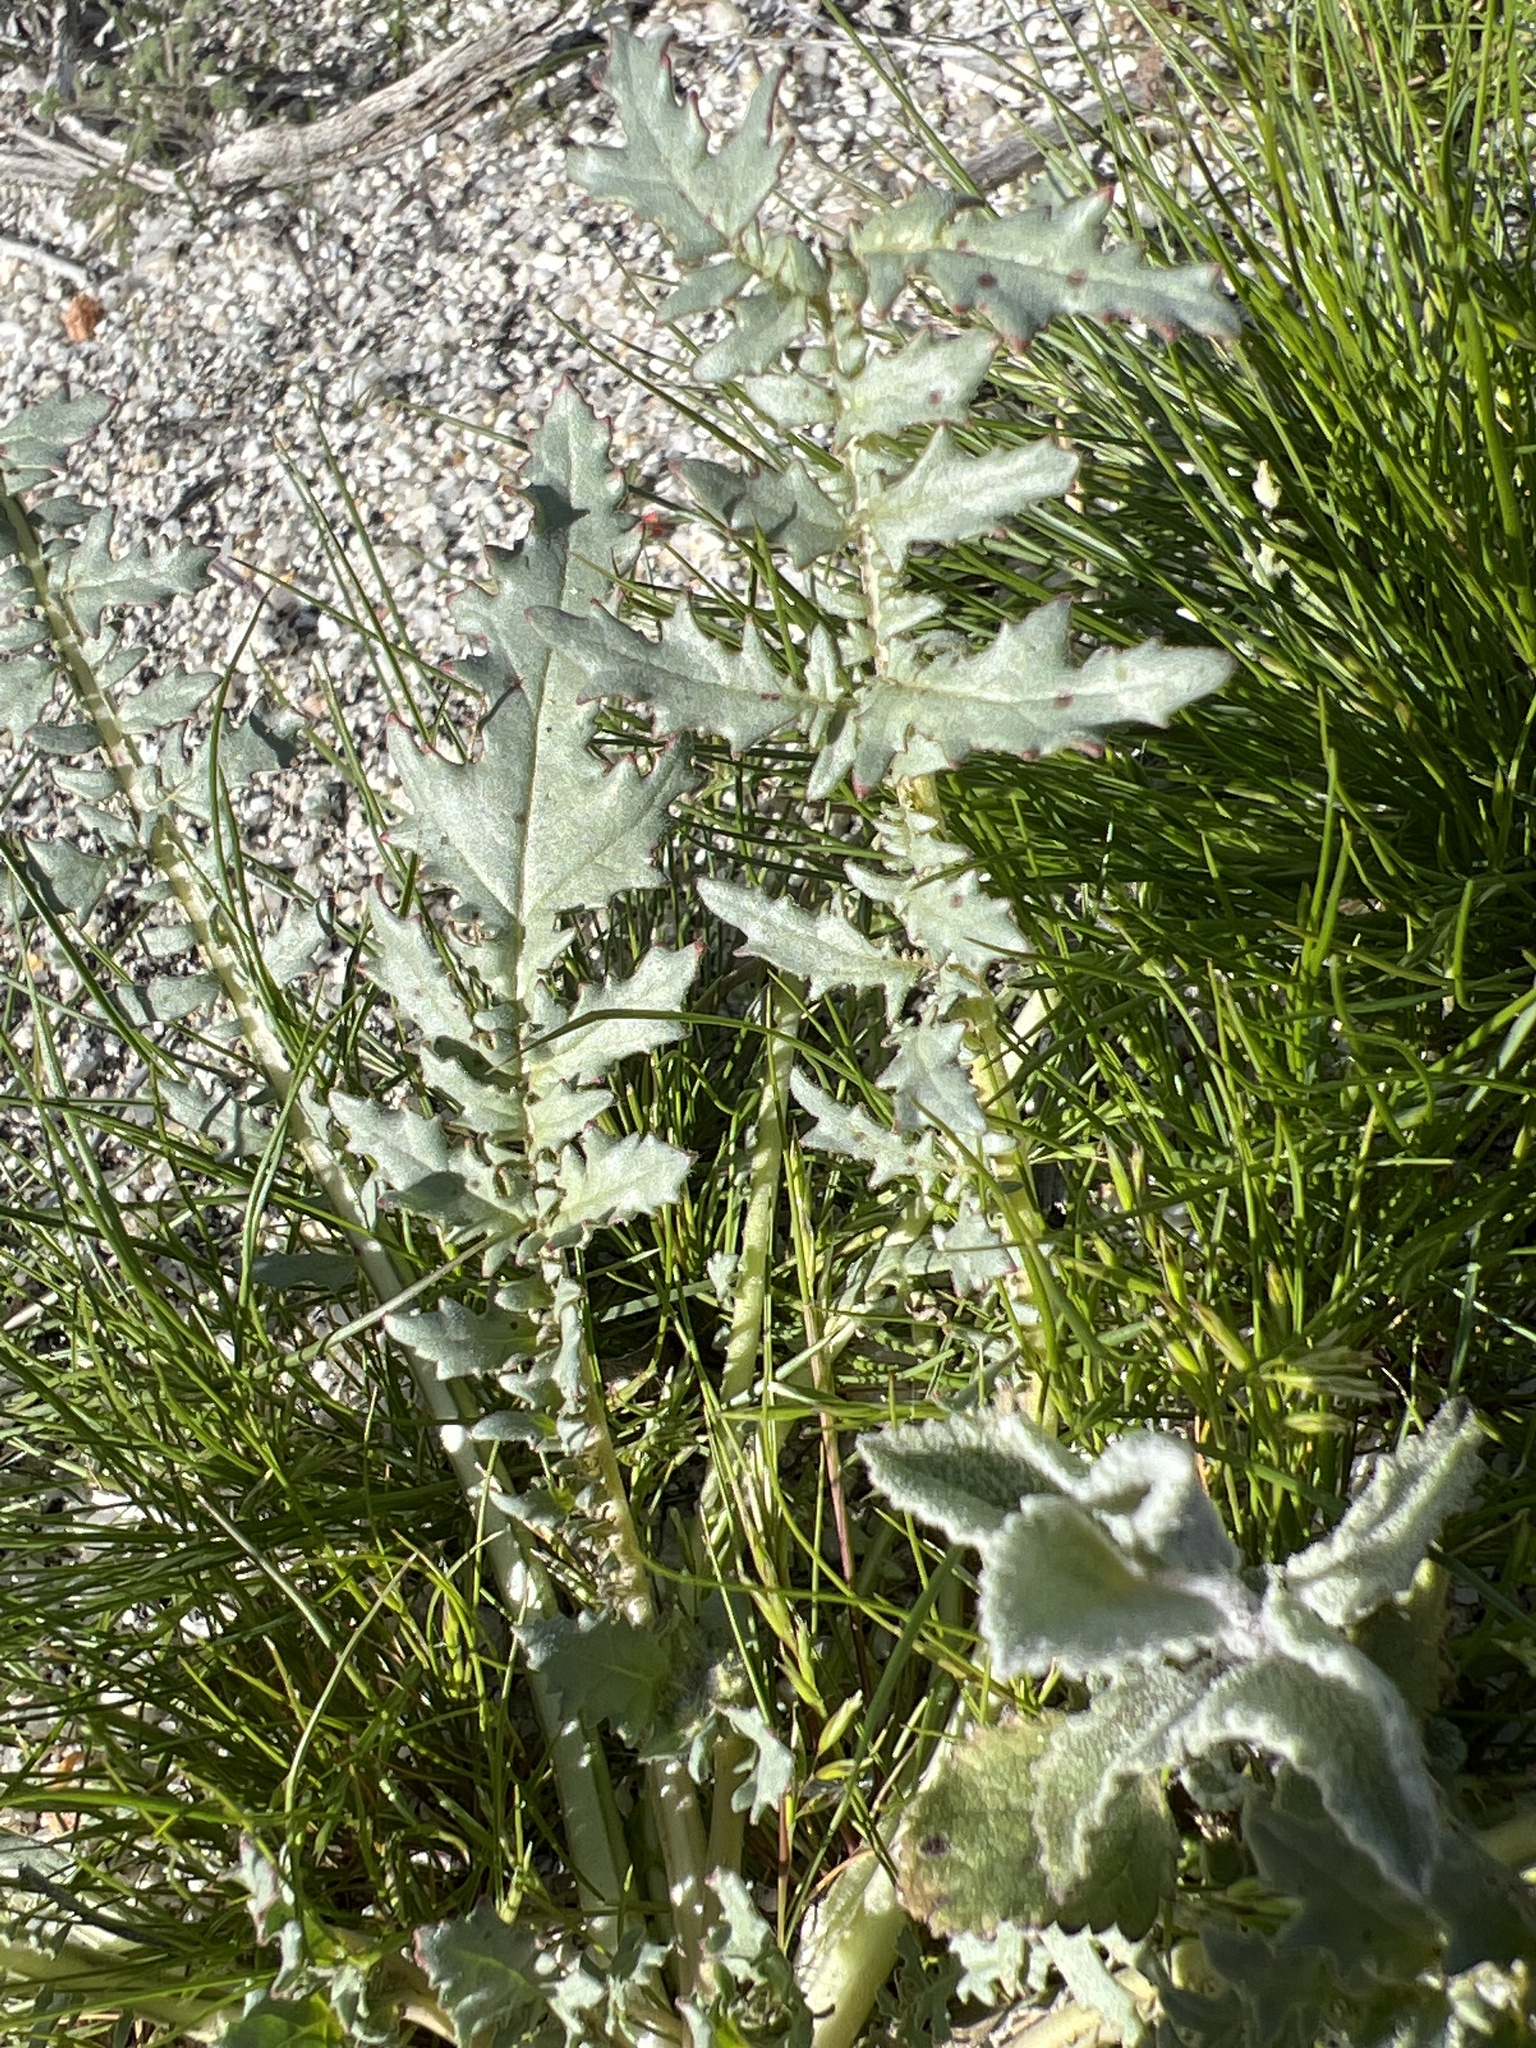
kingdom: Plantae
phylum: Tracheophyta
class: Magnoliopsida
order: Myrtales
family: Onagraceae
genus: Chylismia
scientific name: Chylismia claviformis
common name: Browneyes
